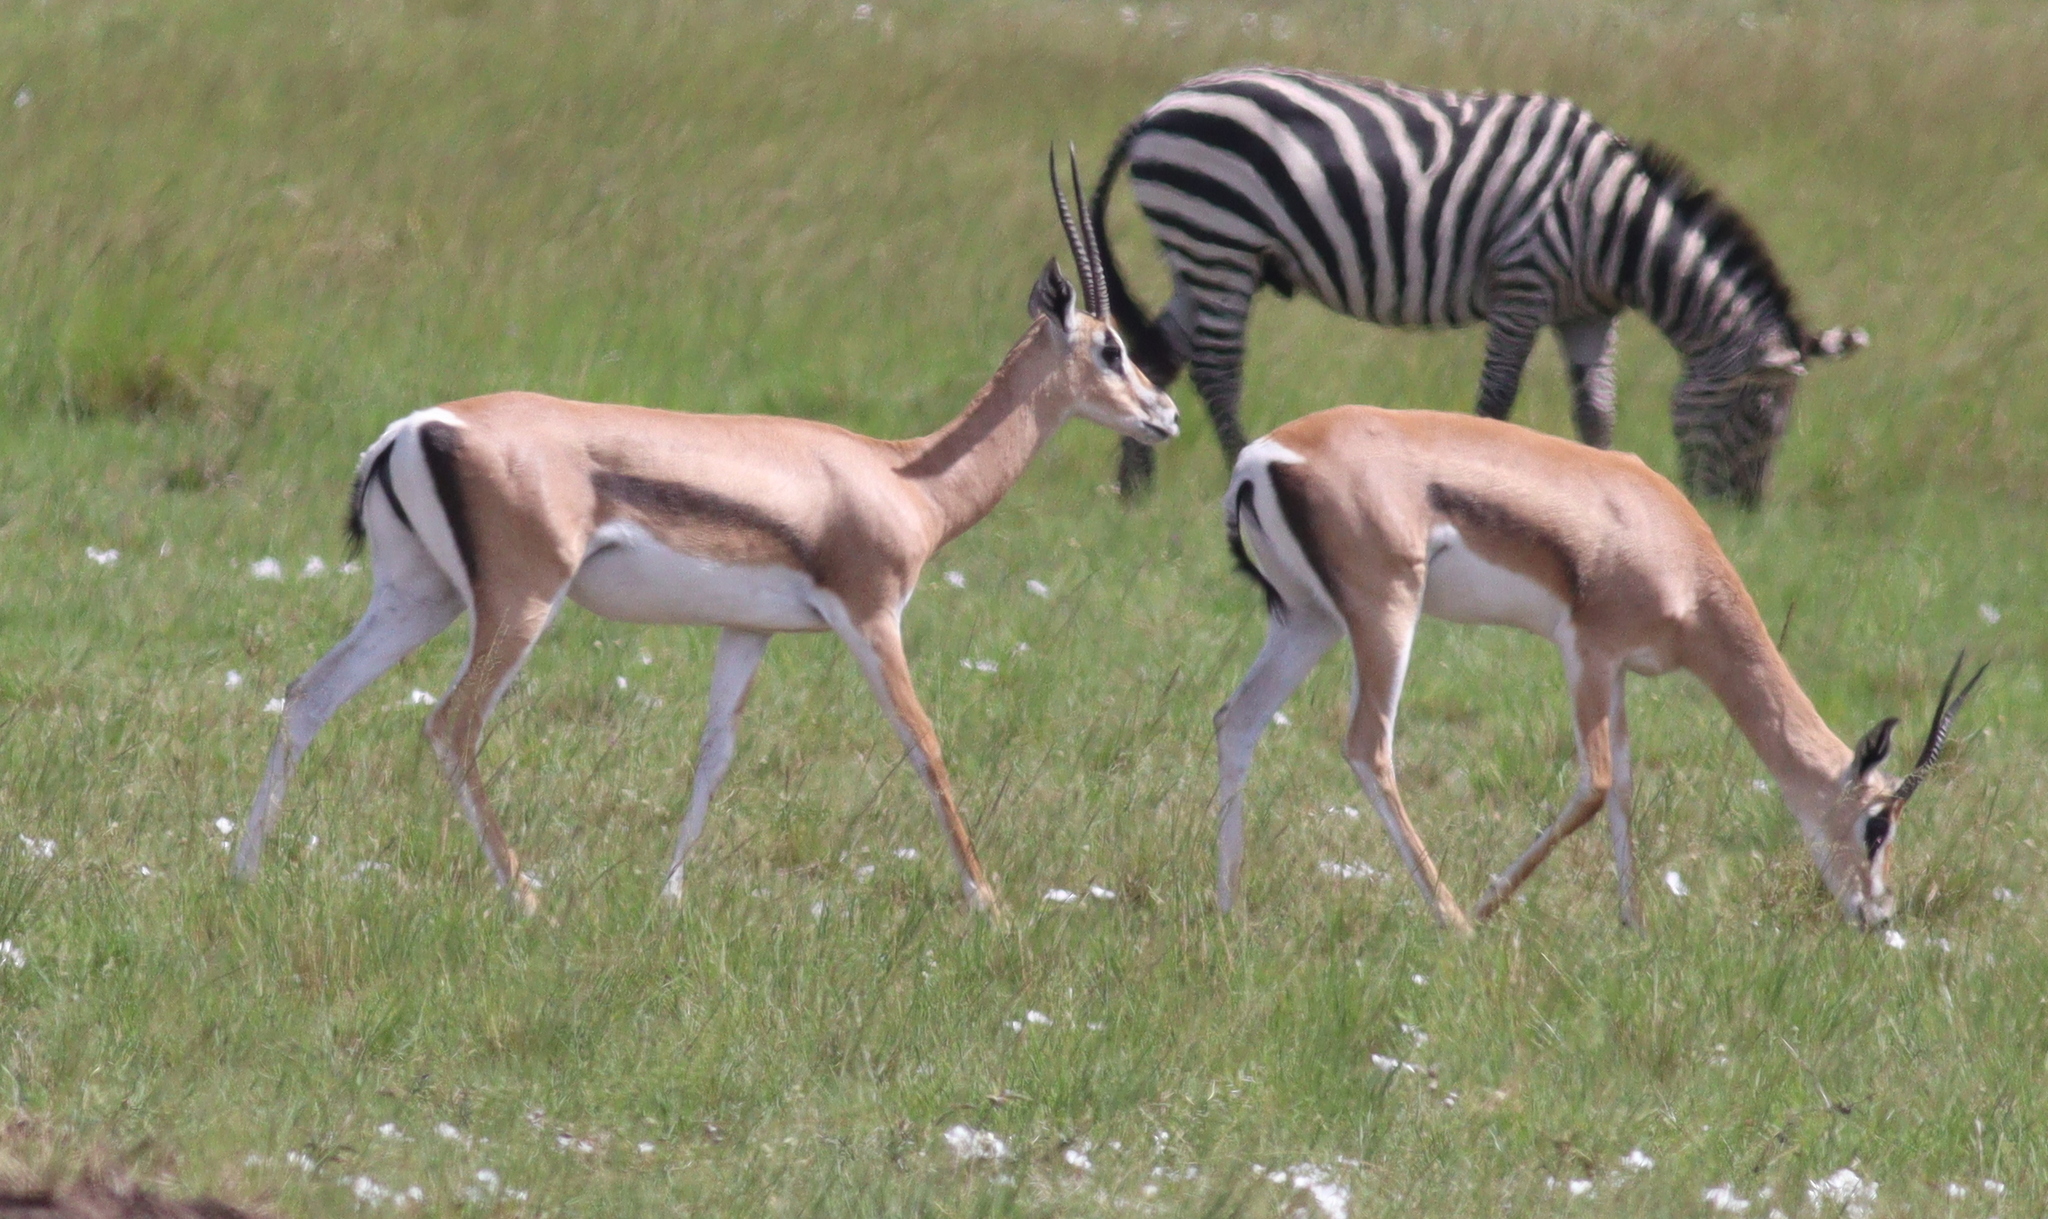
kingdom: Animalia
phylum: Chordata
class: Mammalia
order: Artiodactyla
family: Bovidae
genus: Nanger
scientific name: Nanger granti
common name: Grant's gazelle
